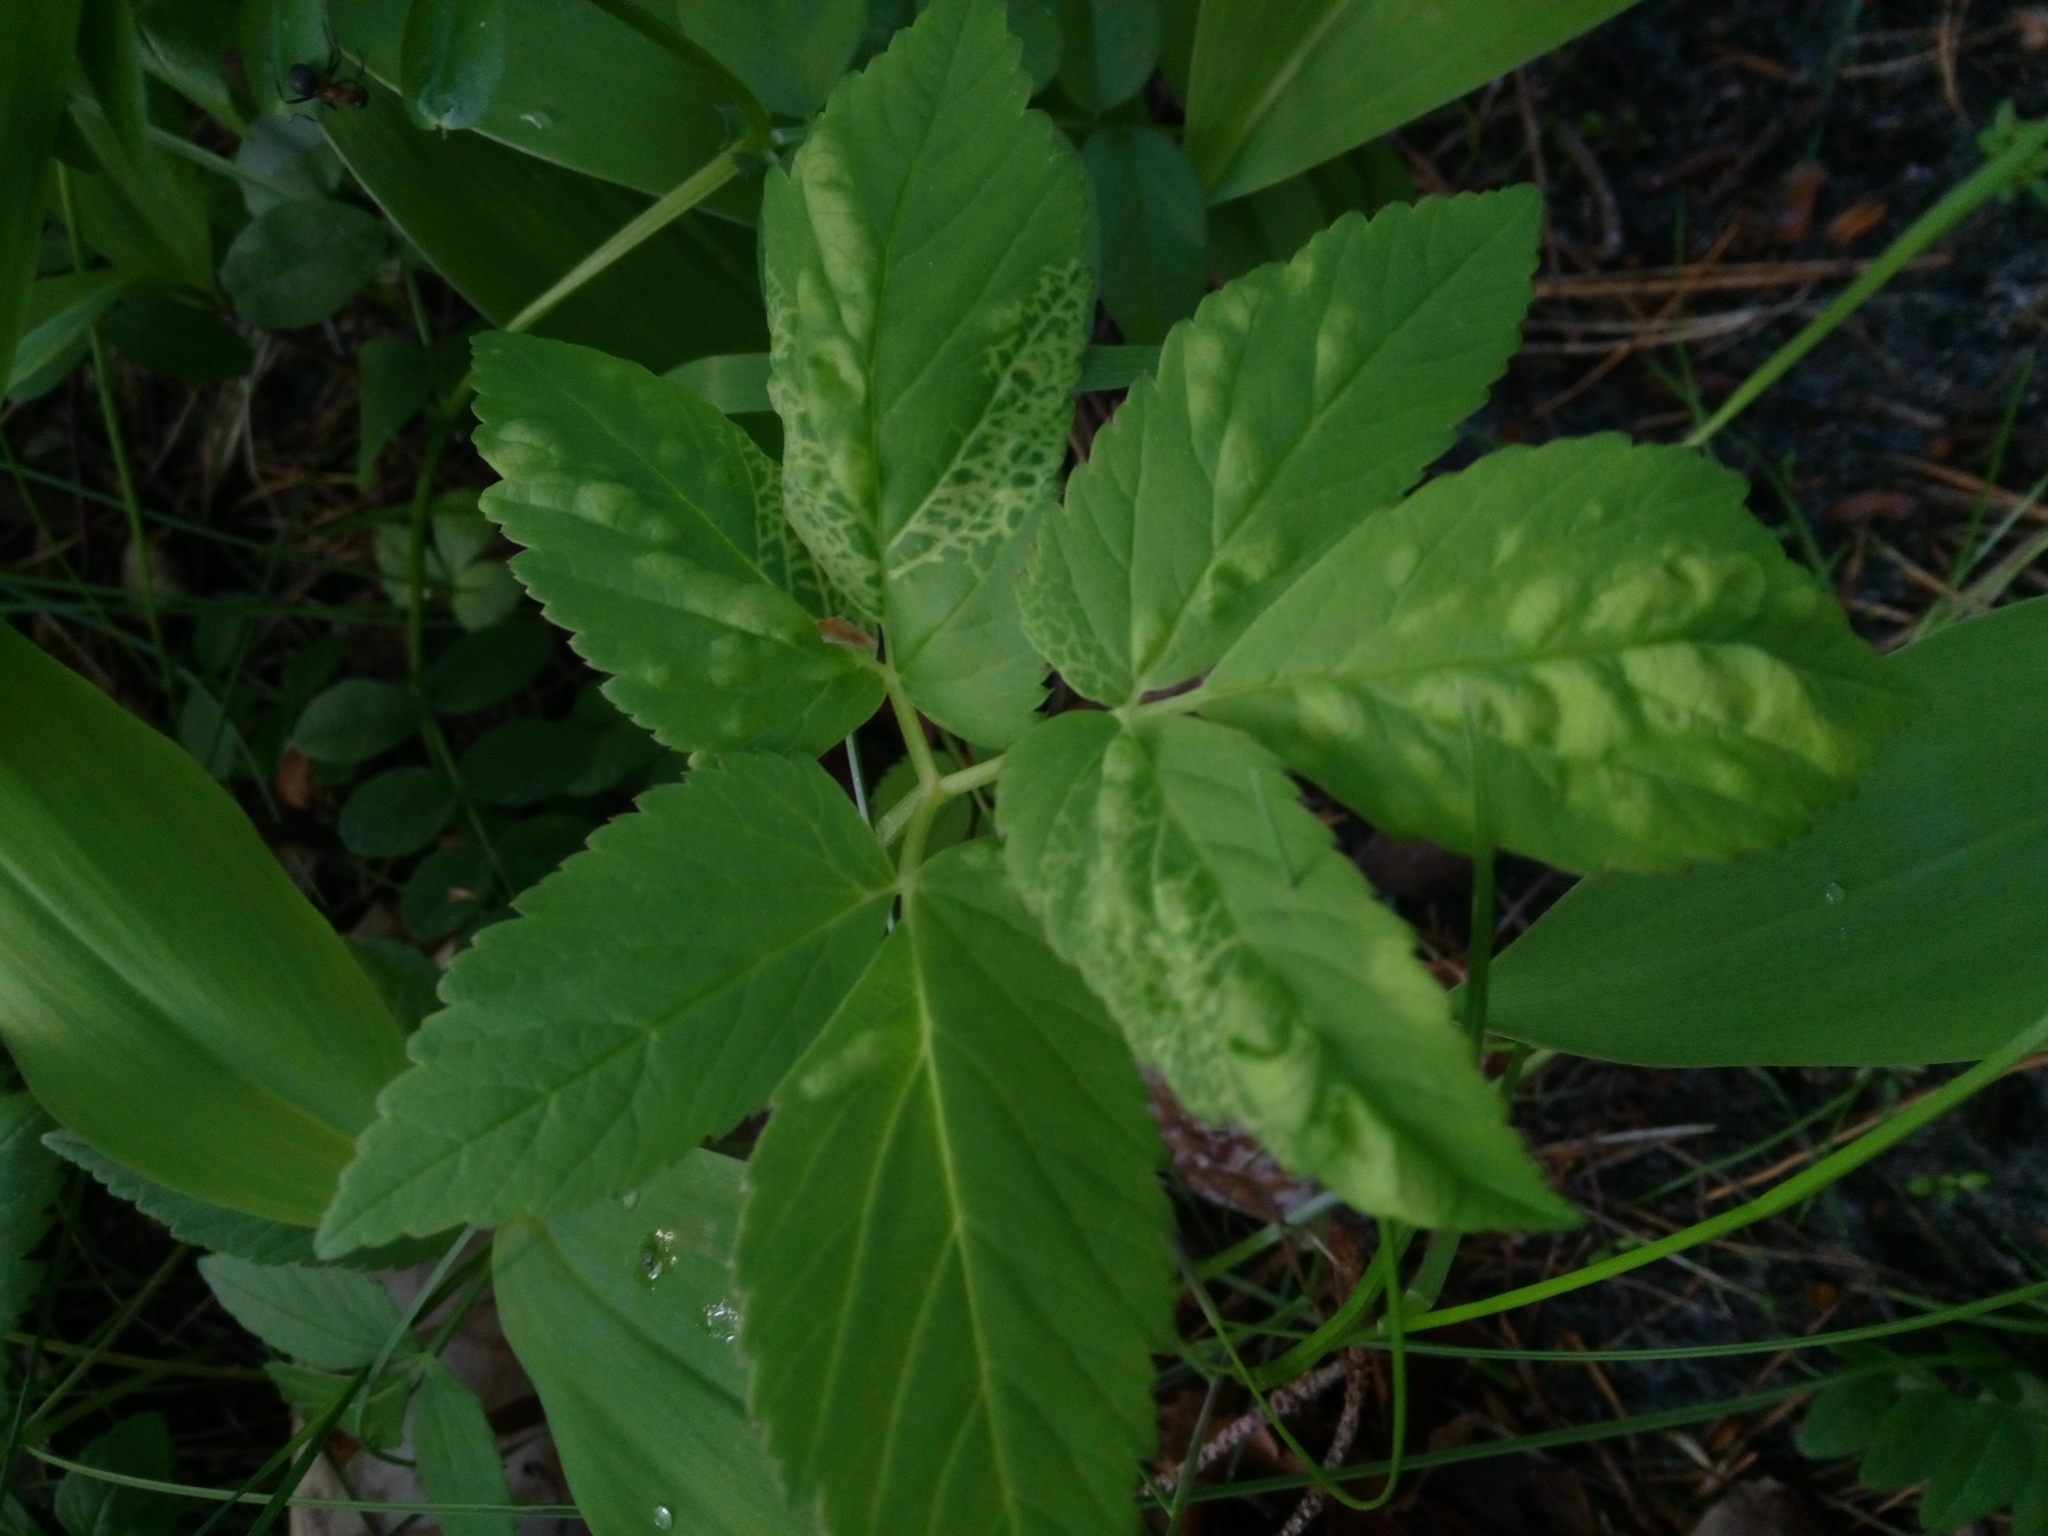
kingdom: Plantae
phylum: Tracheophyta
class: Magnoliopsida
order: Apiales
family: Apiaceae
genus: Aegopodium
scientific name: Aegopodium podagraria
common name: Ground-elder
